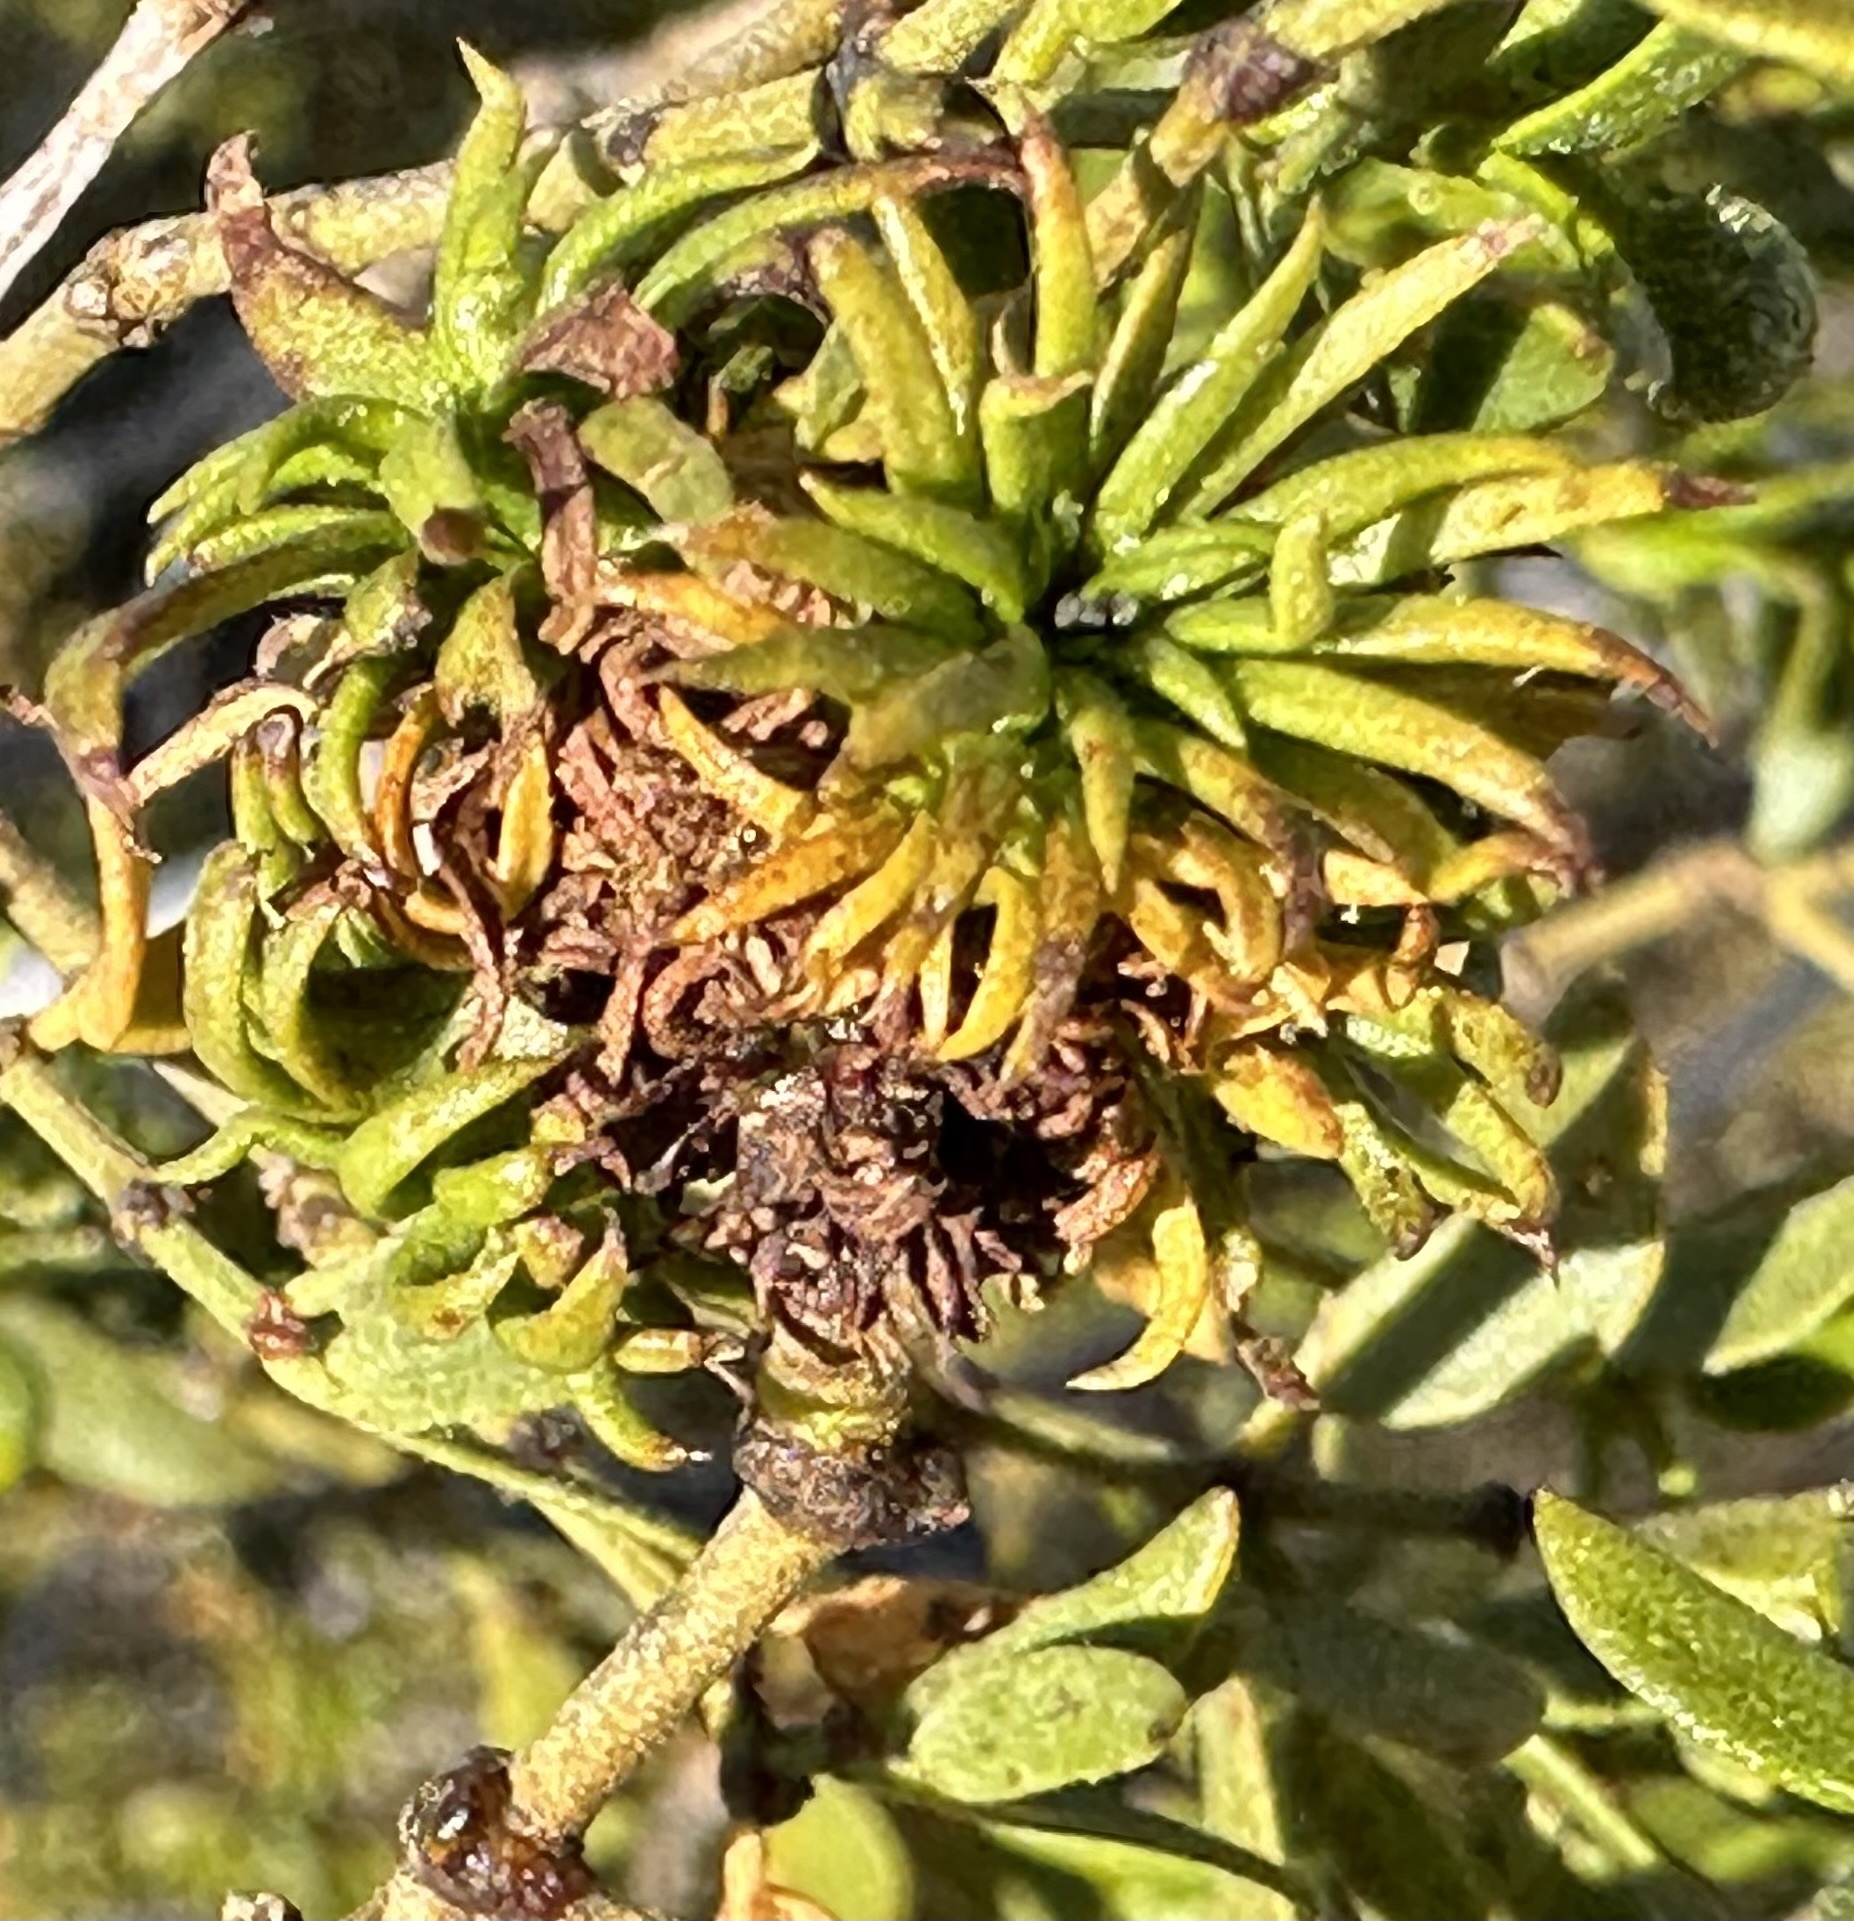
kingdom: Animalia
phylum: Arthropoda
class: Insecta
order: Diptera
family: Cecidomyiidae
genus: Asphondylia
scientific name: Asphondylia auripila
